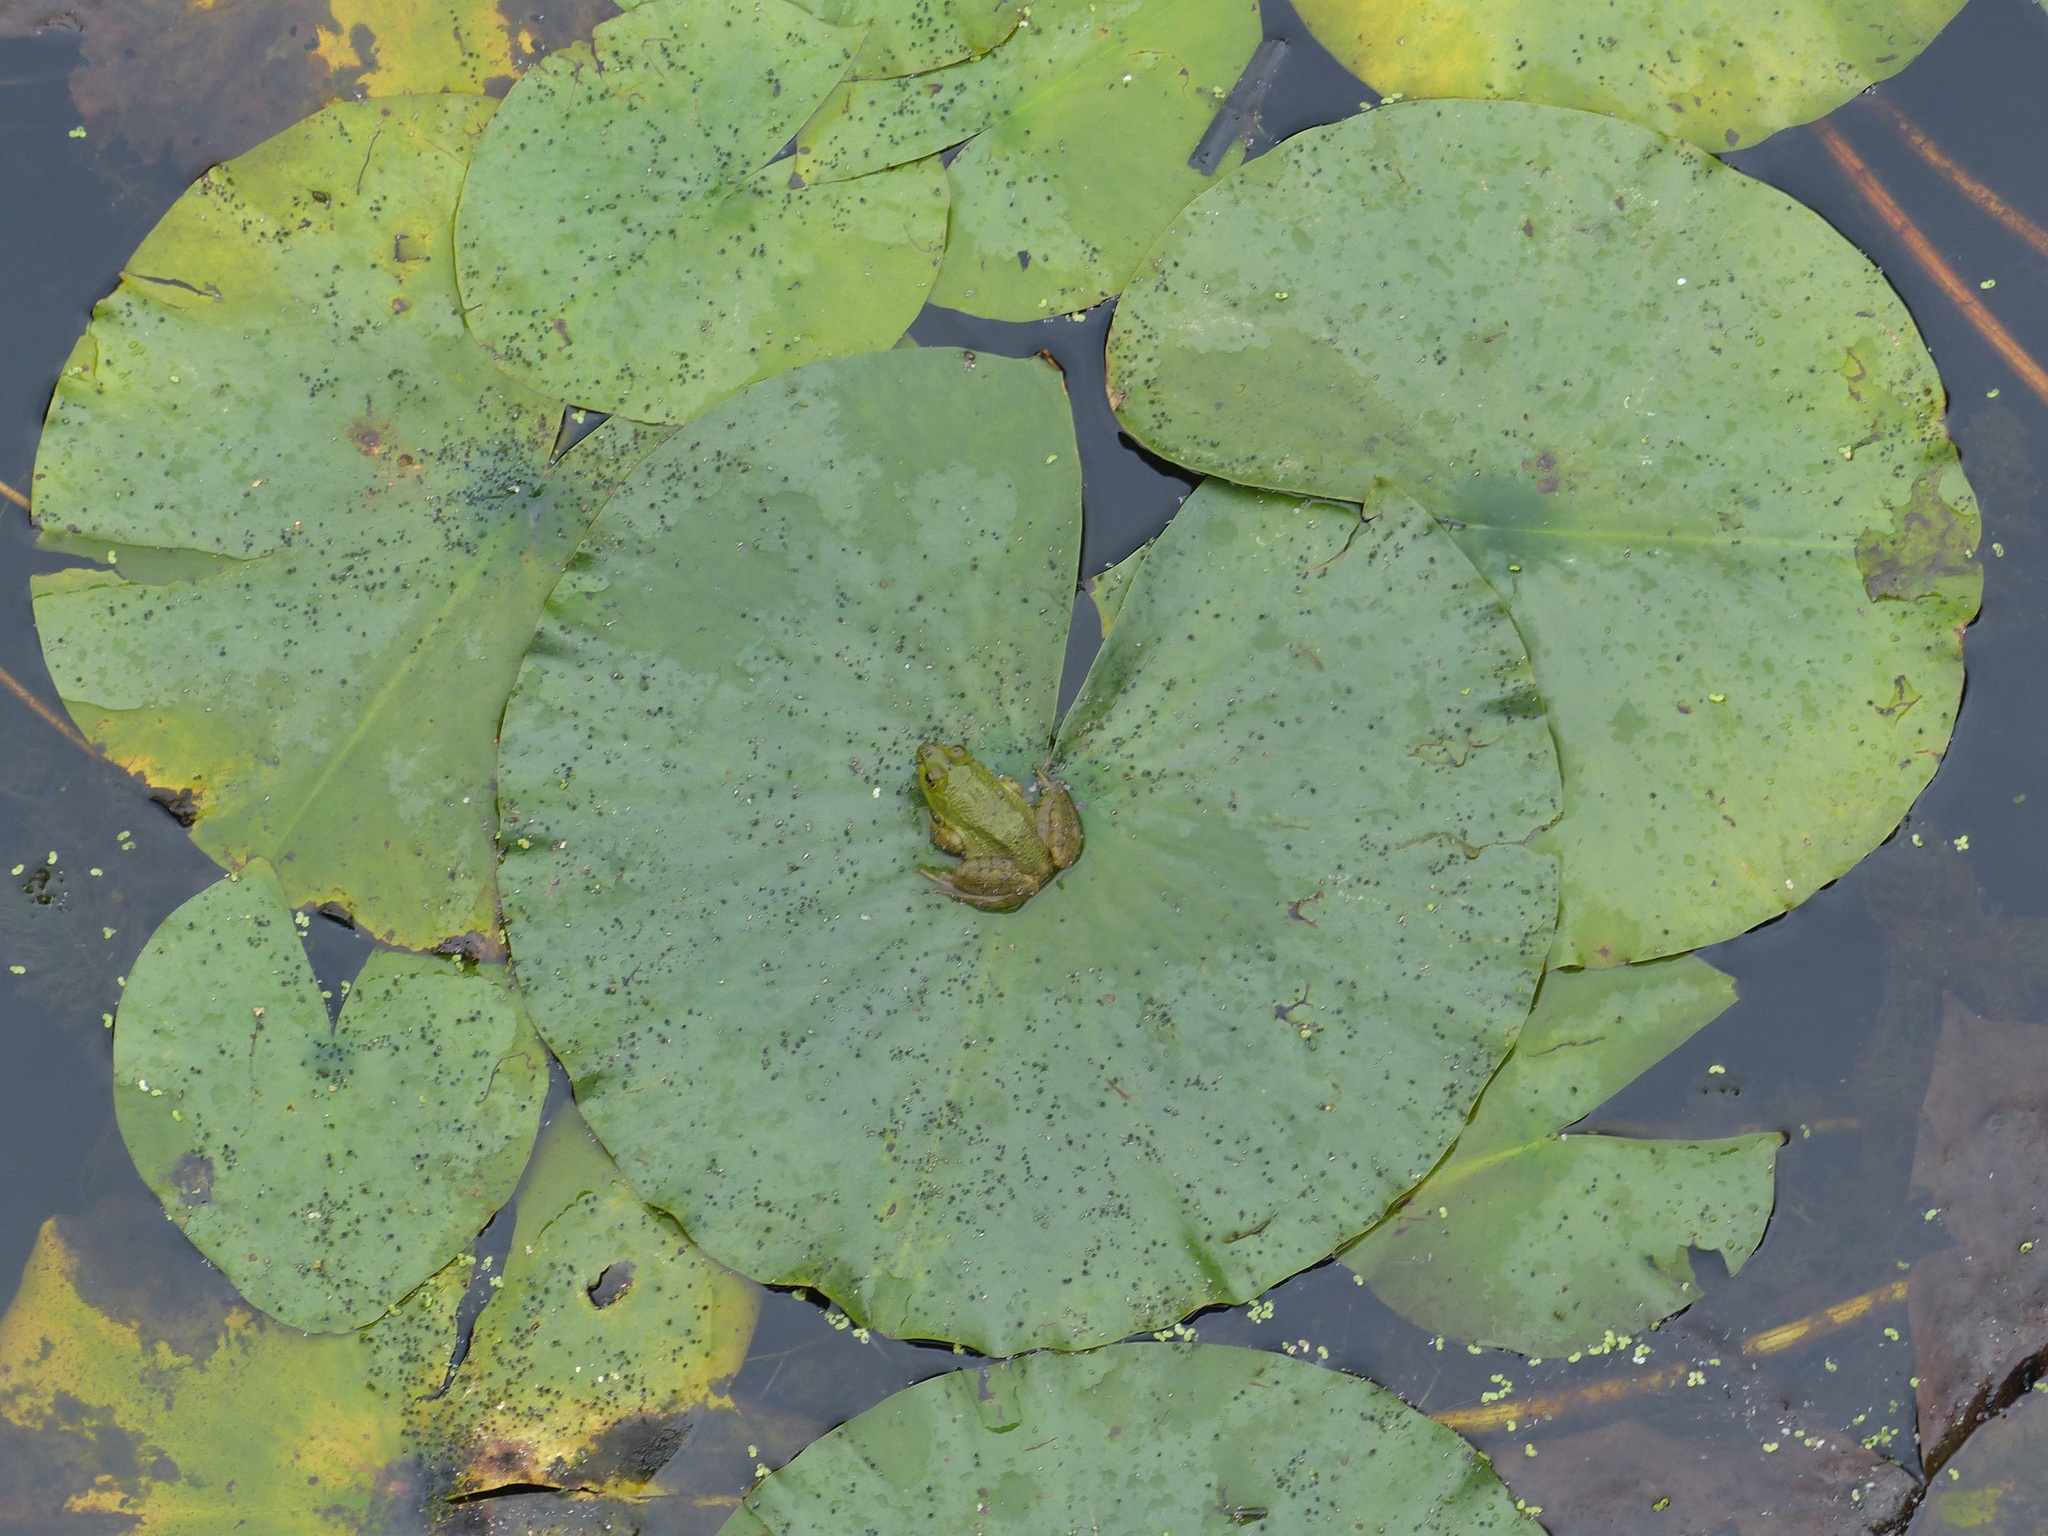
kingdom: Animalia
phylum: Chordata
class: Amphibia
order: Anura
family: Ranidae
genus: Lithobates
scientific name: Lithobates catesbeianus
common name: American bullfrog
